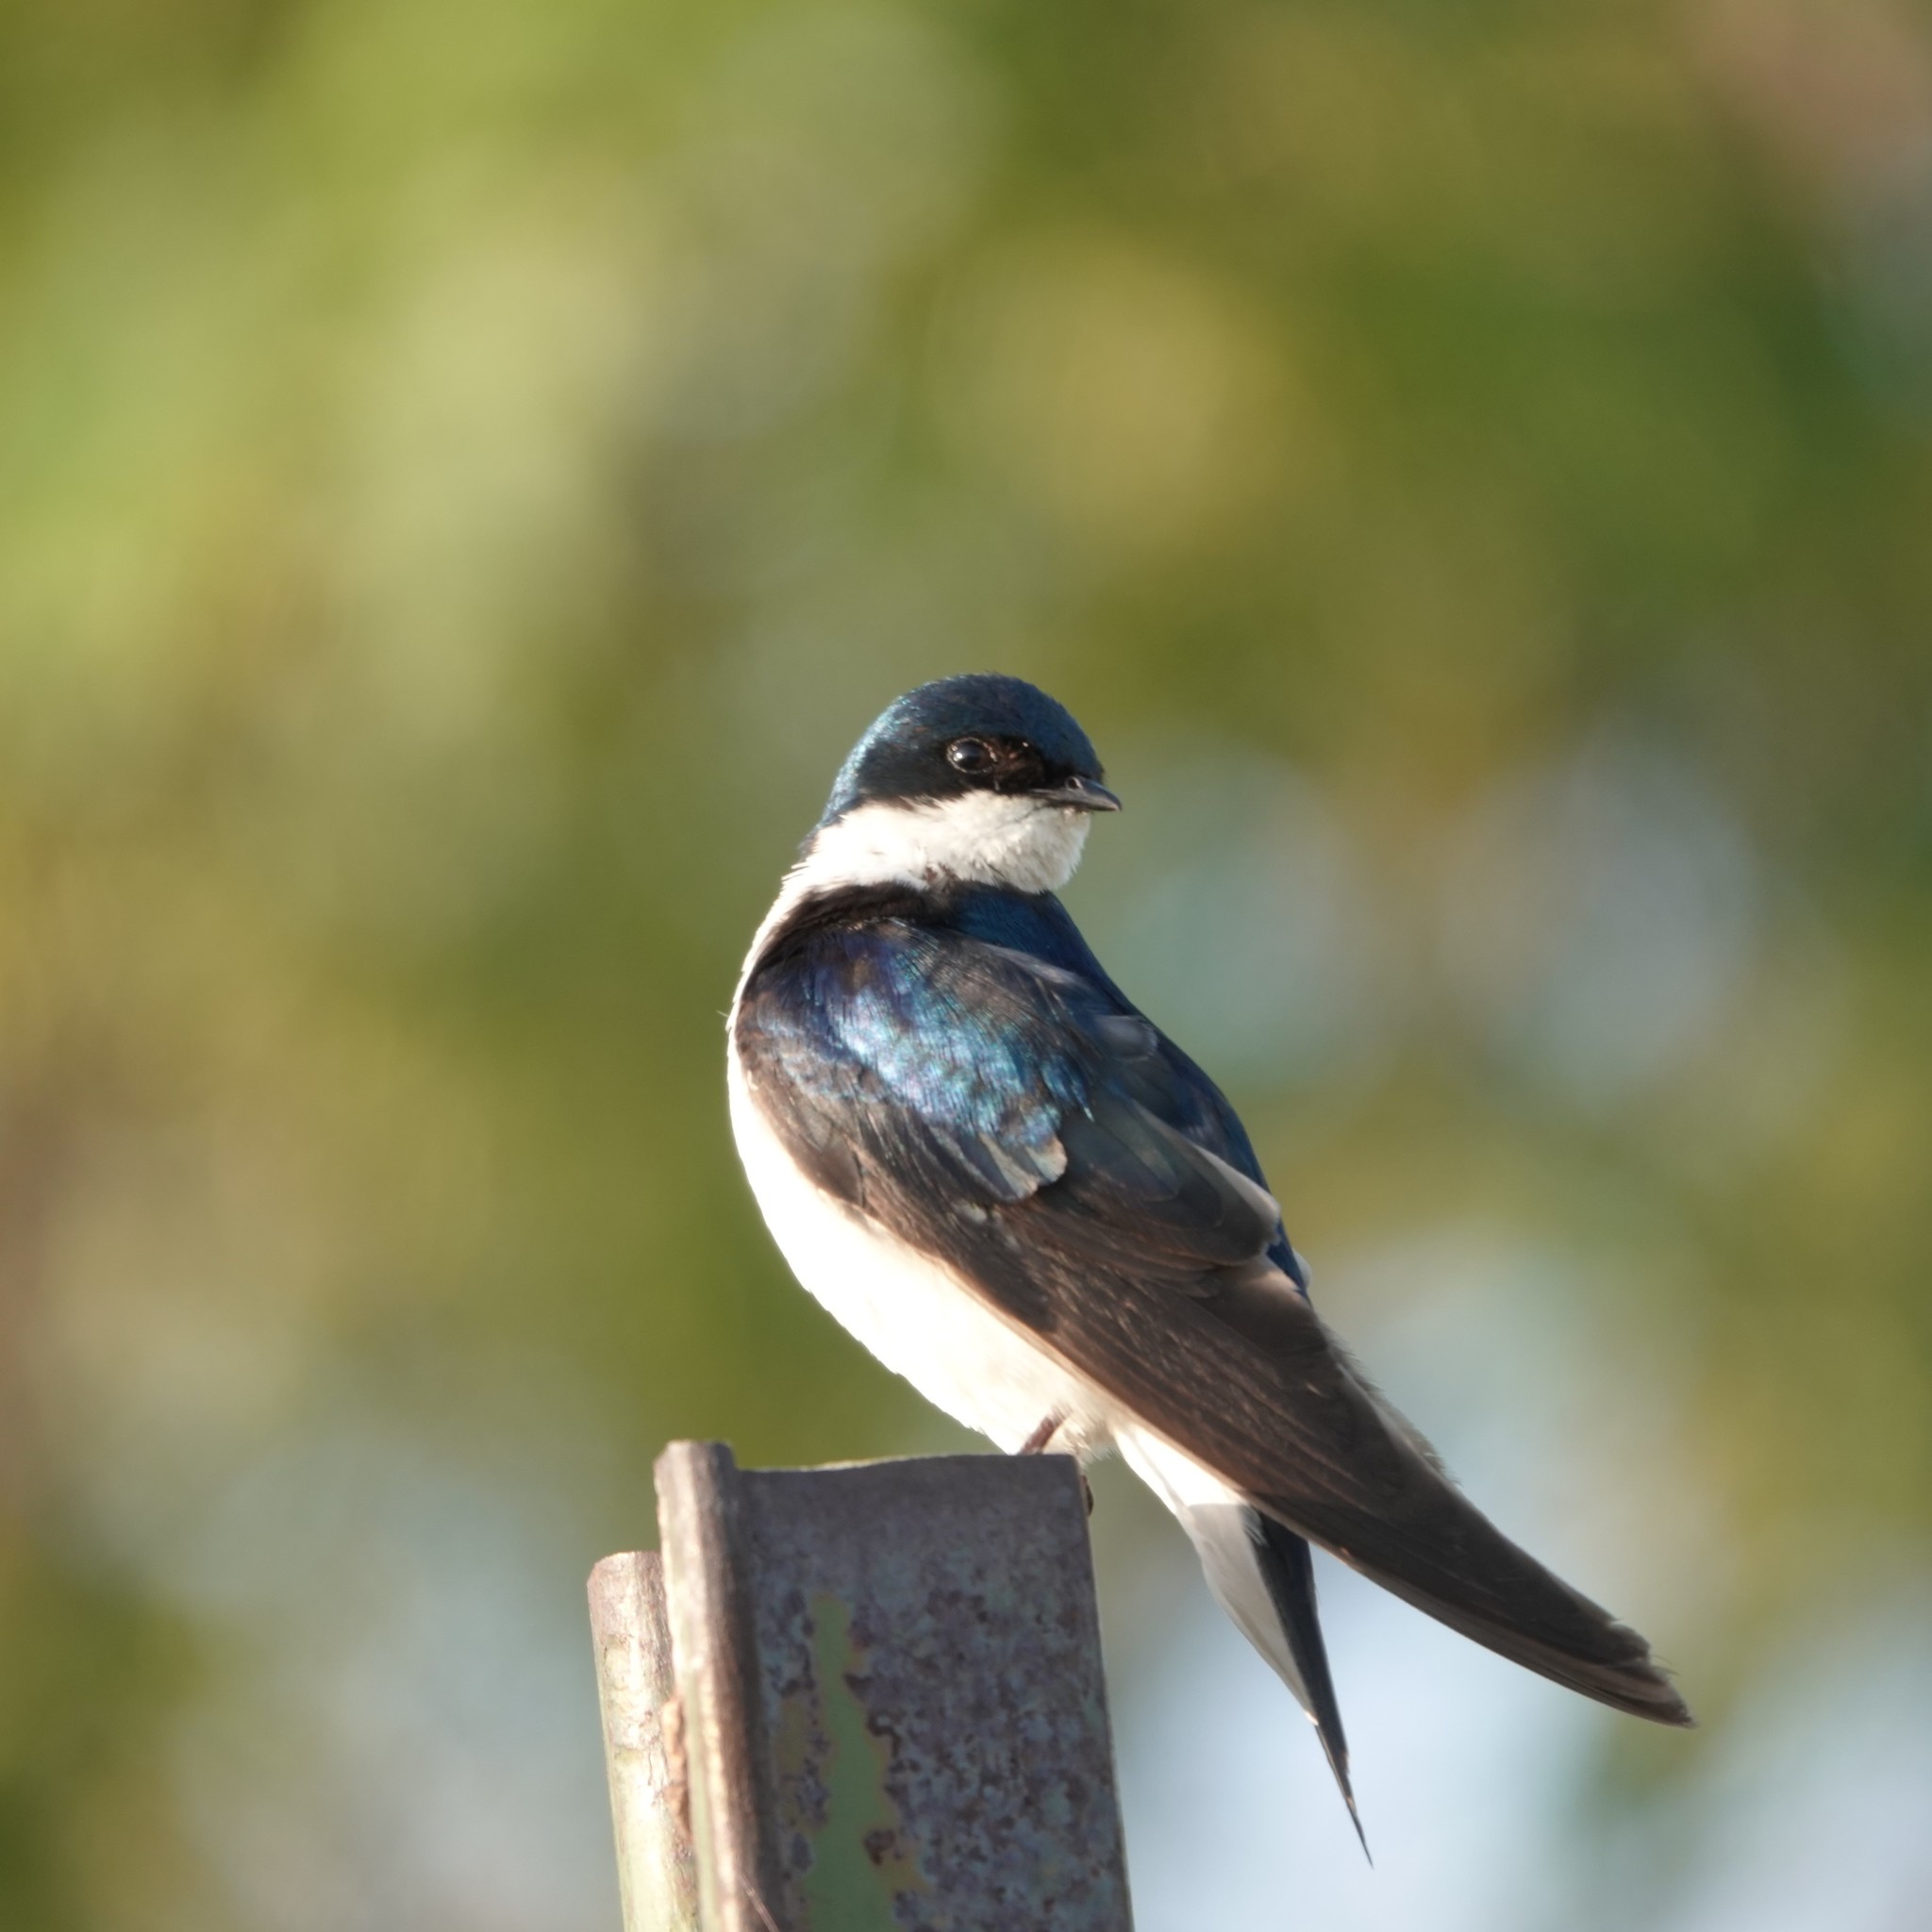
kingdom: Animalia
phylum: Chordata
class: Aves
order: Passeriformes
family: Hirundinidae
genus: Tachycineta
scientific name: Tachycineta bicolor
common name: Tree swallow
